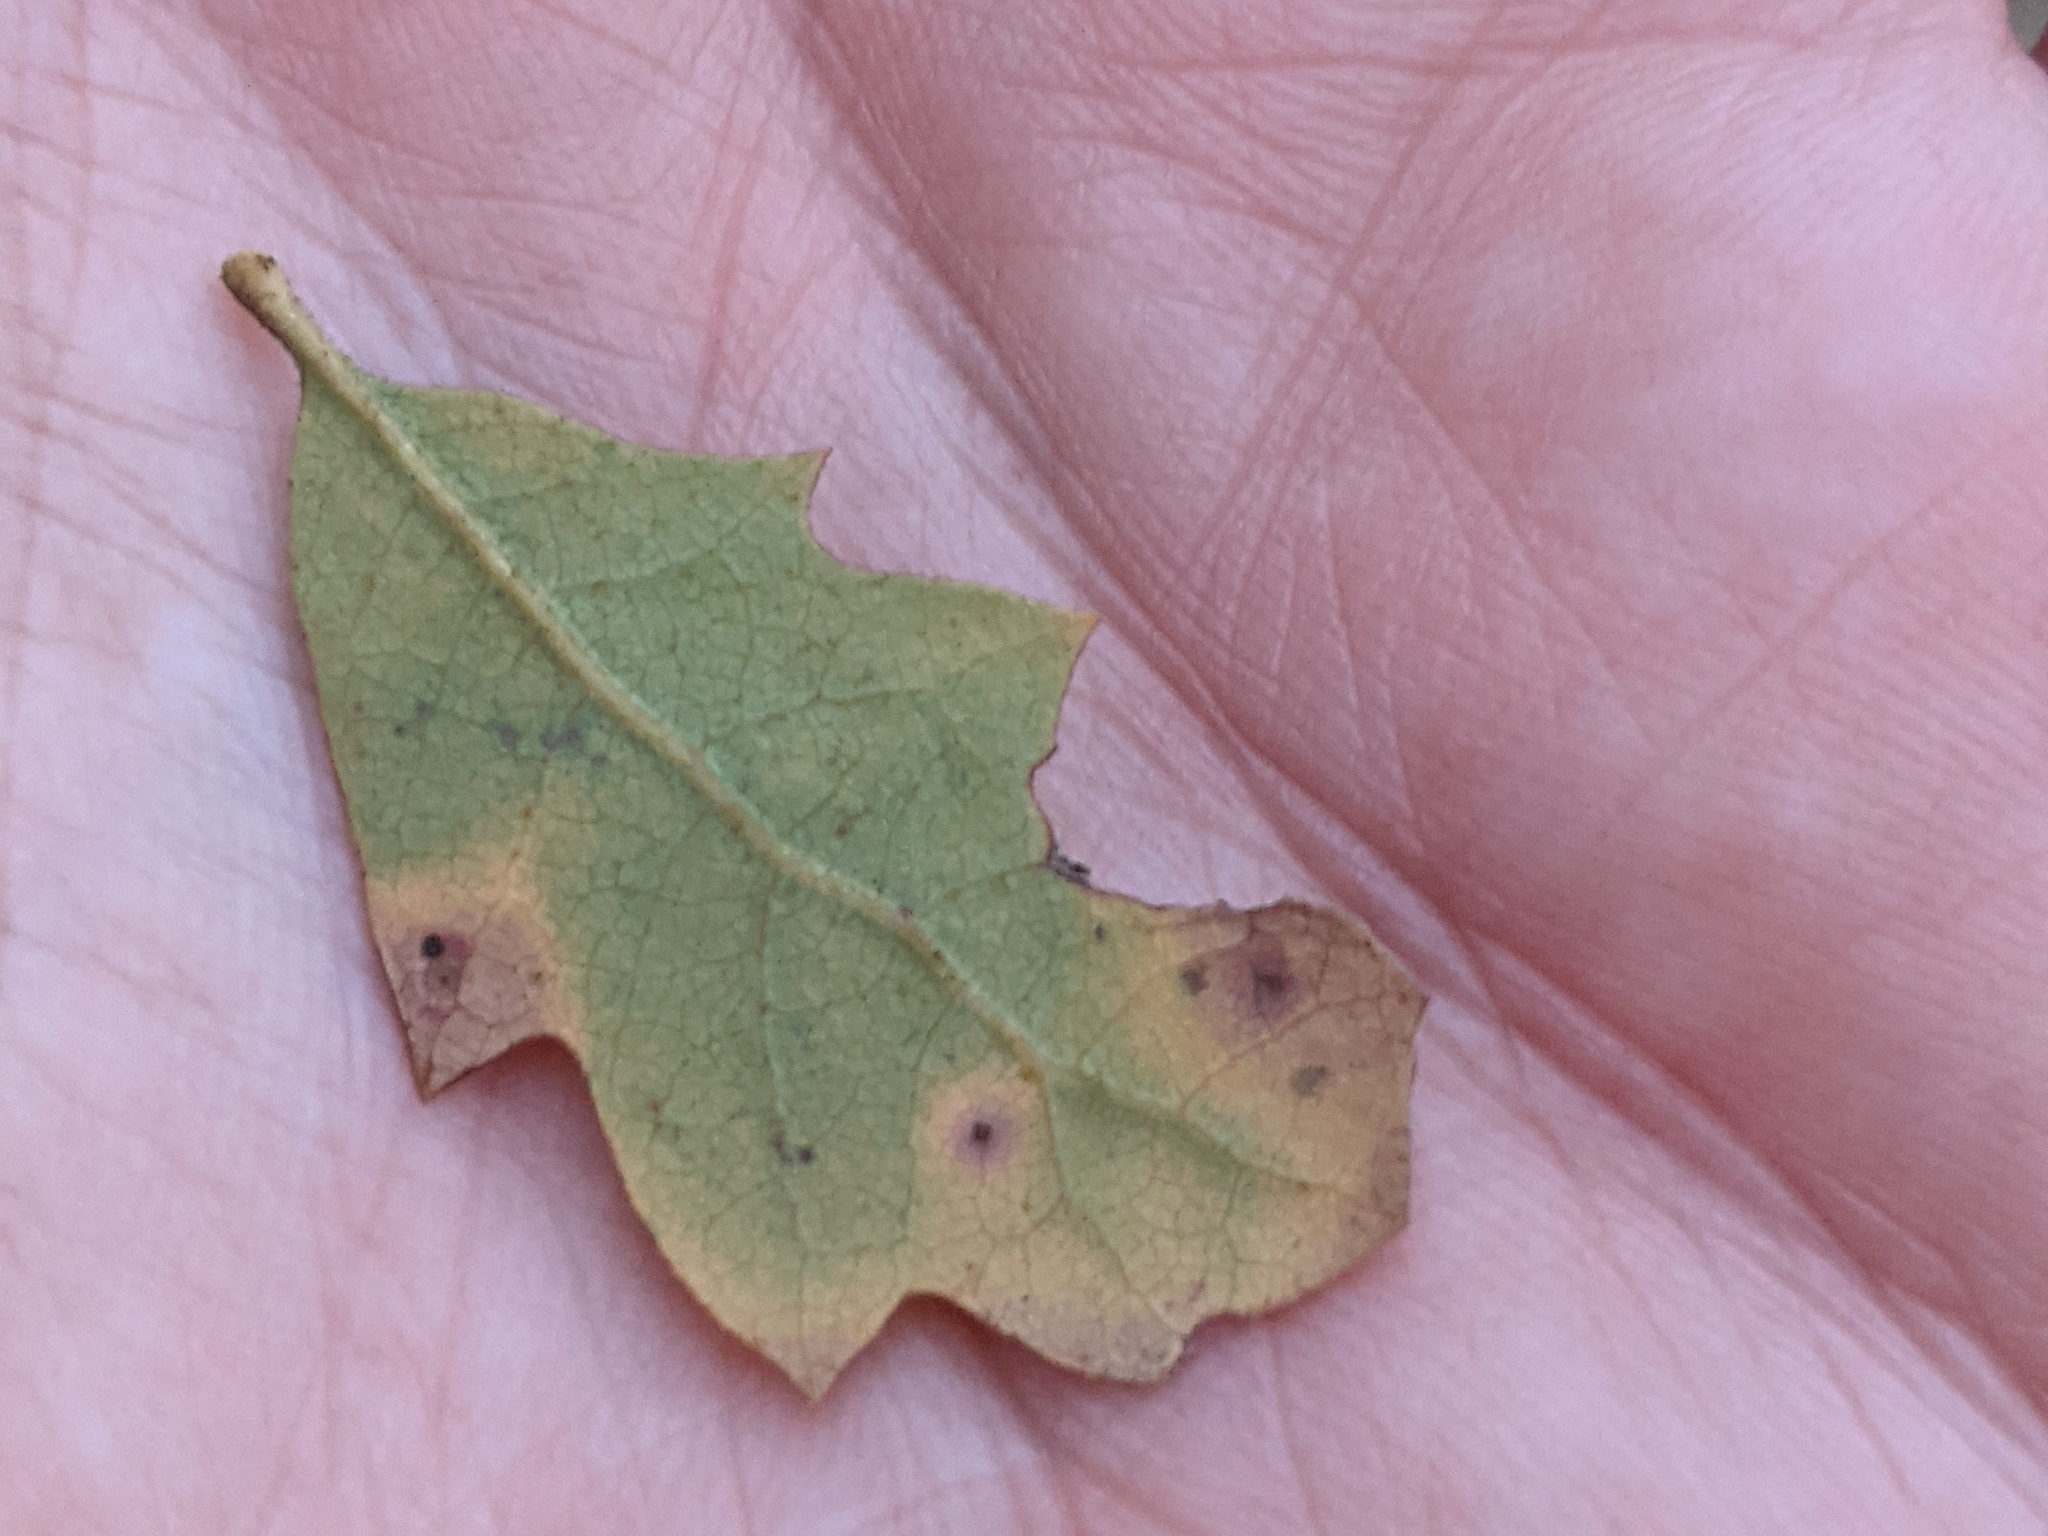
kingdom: Plantae
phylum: Tracheophyta
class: Magnoliopsida
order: Fagales
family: Fagaceae
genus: Quercus
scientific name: Quercus douglasii
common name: Blue oak
